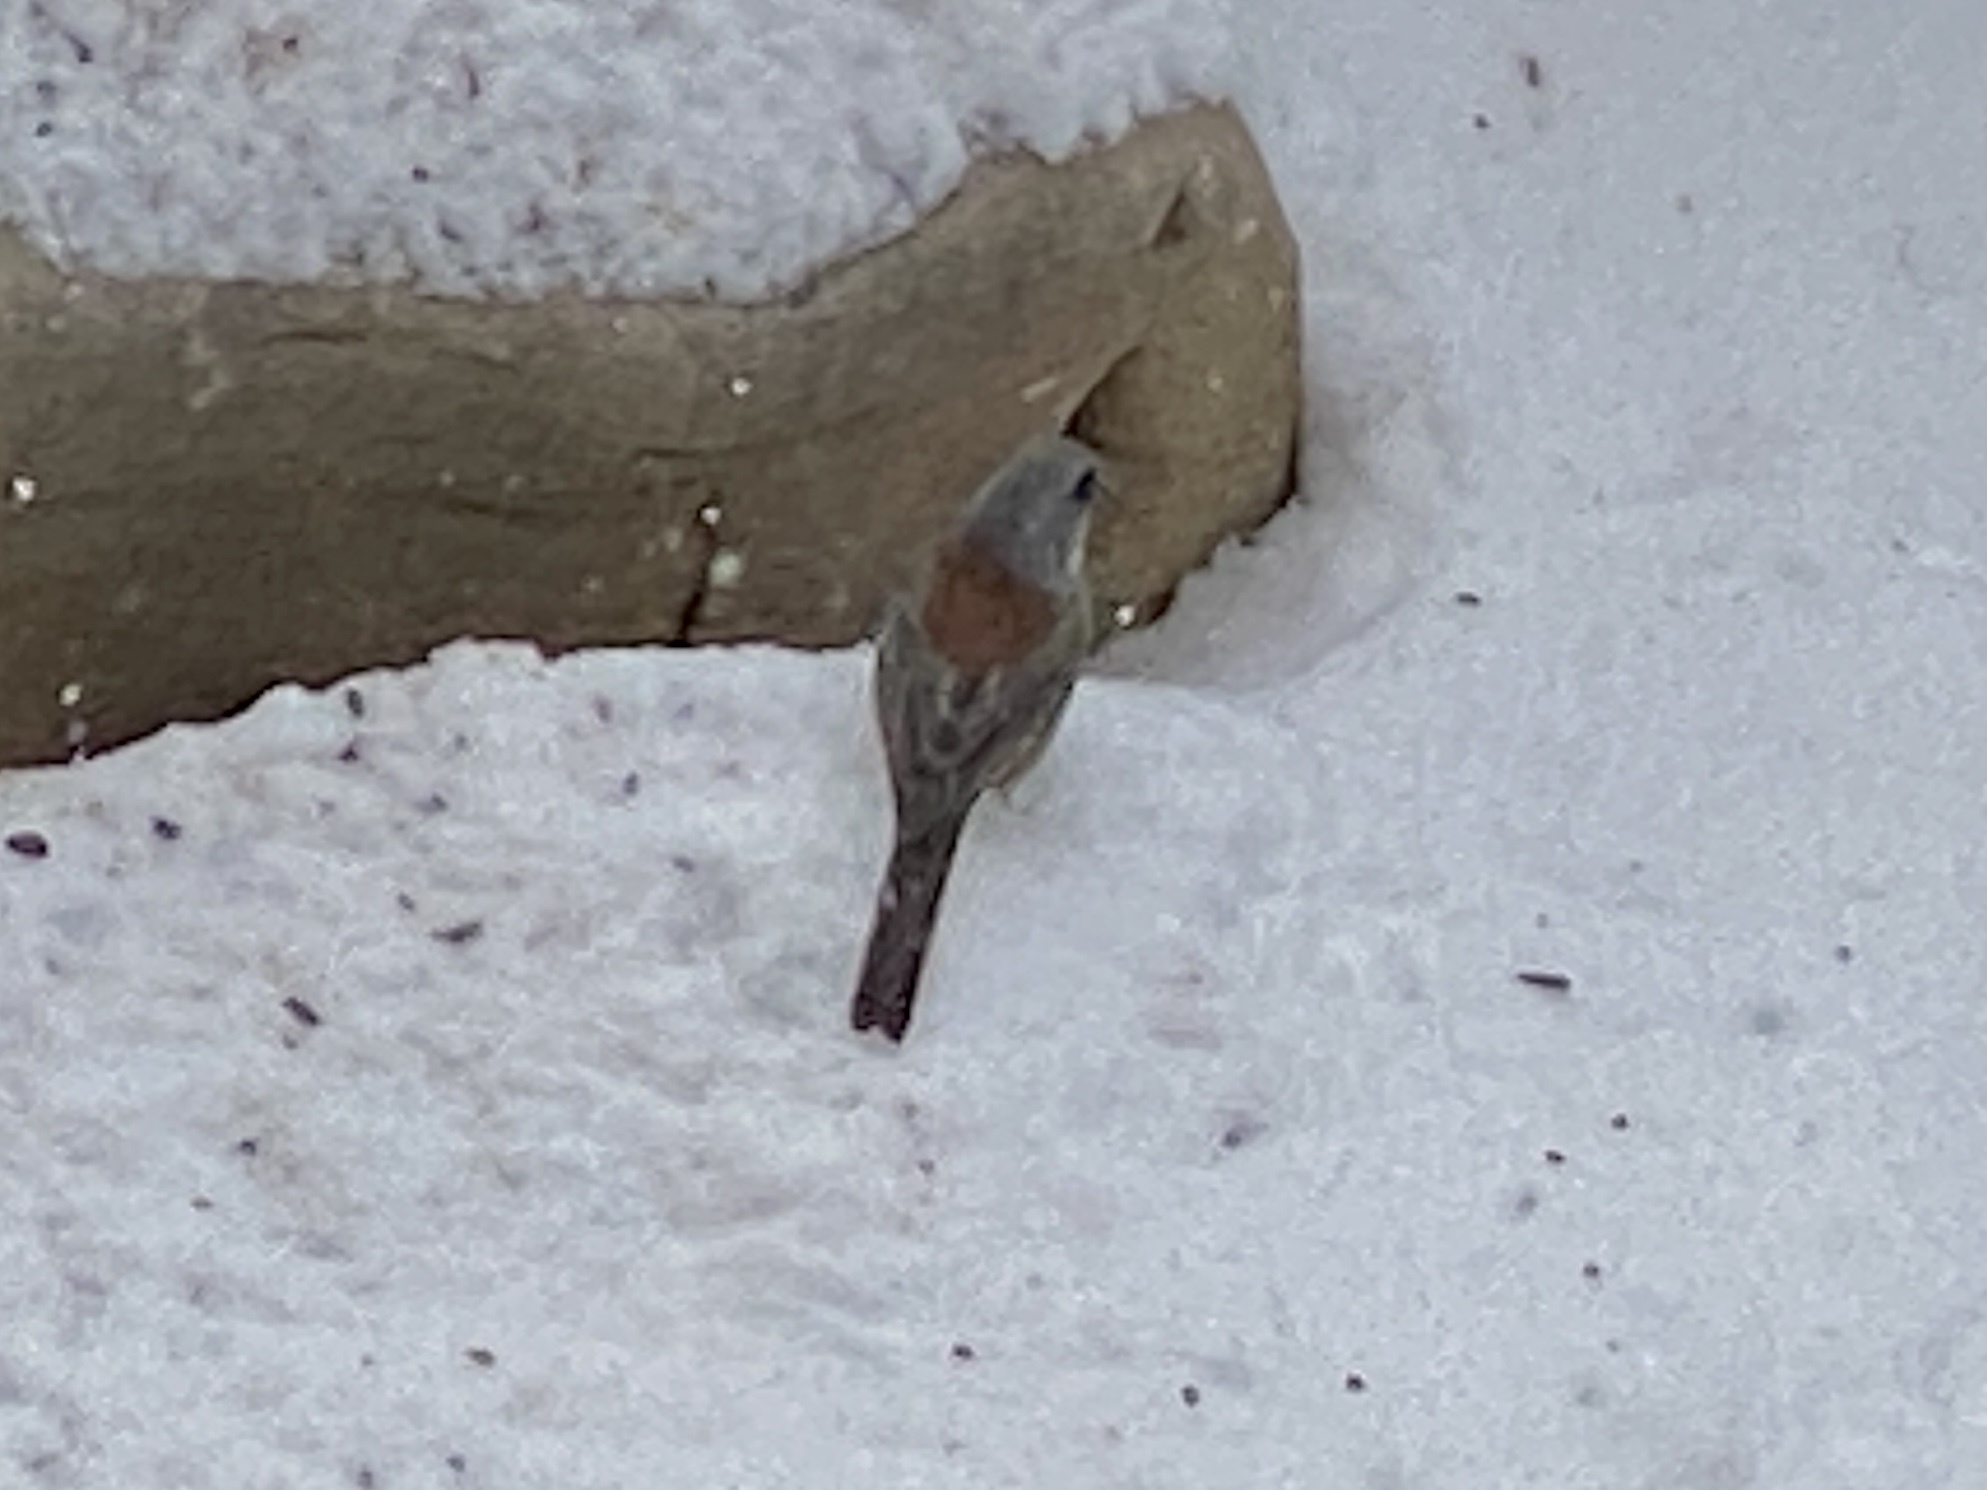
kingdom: Animalia
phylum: Chordata
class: Aves
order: Passeriformes
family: Passerellidae
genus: Junco
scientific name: Junco hyemalis
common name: Dark-eyed junco
